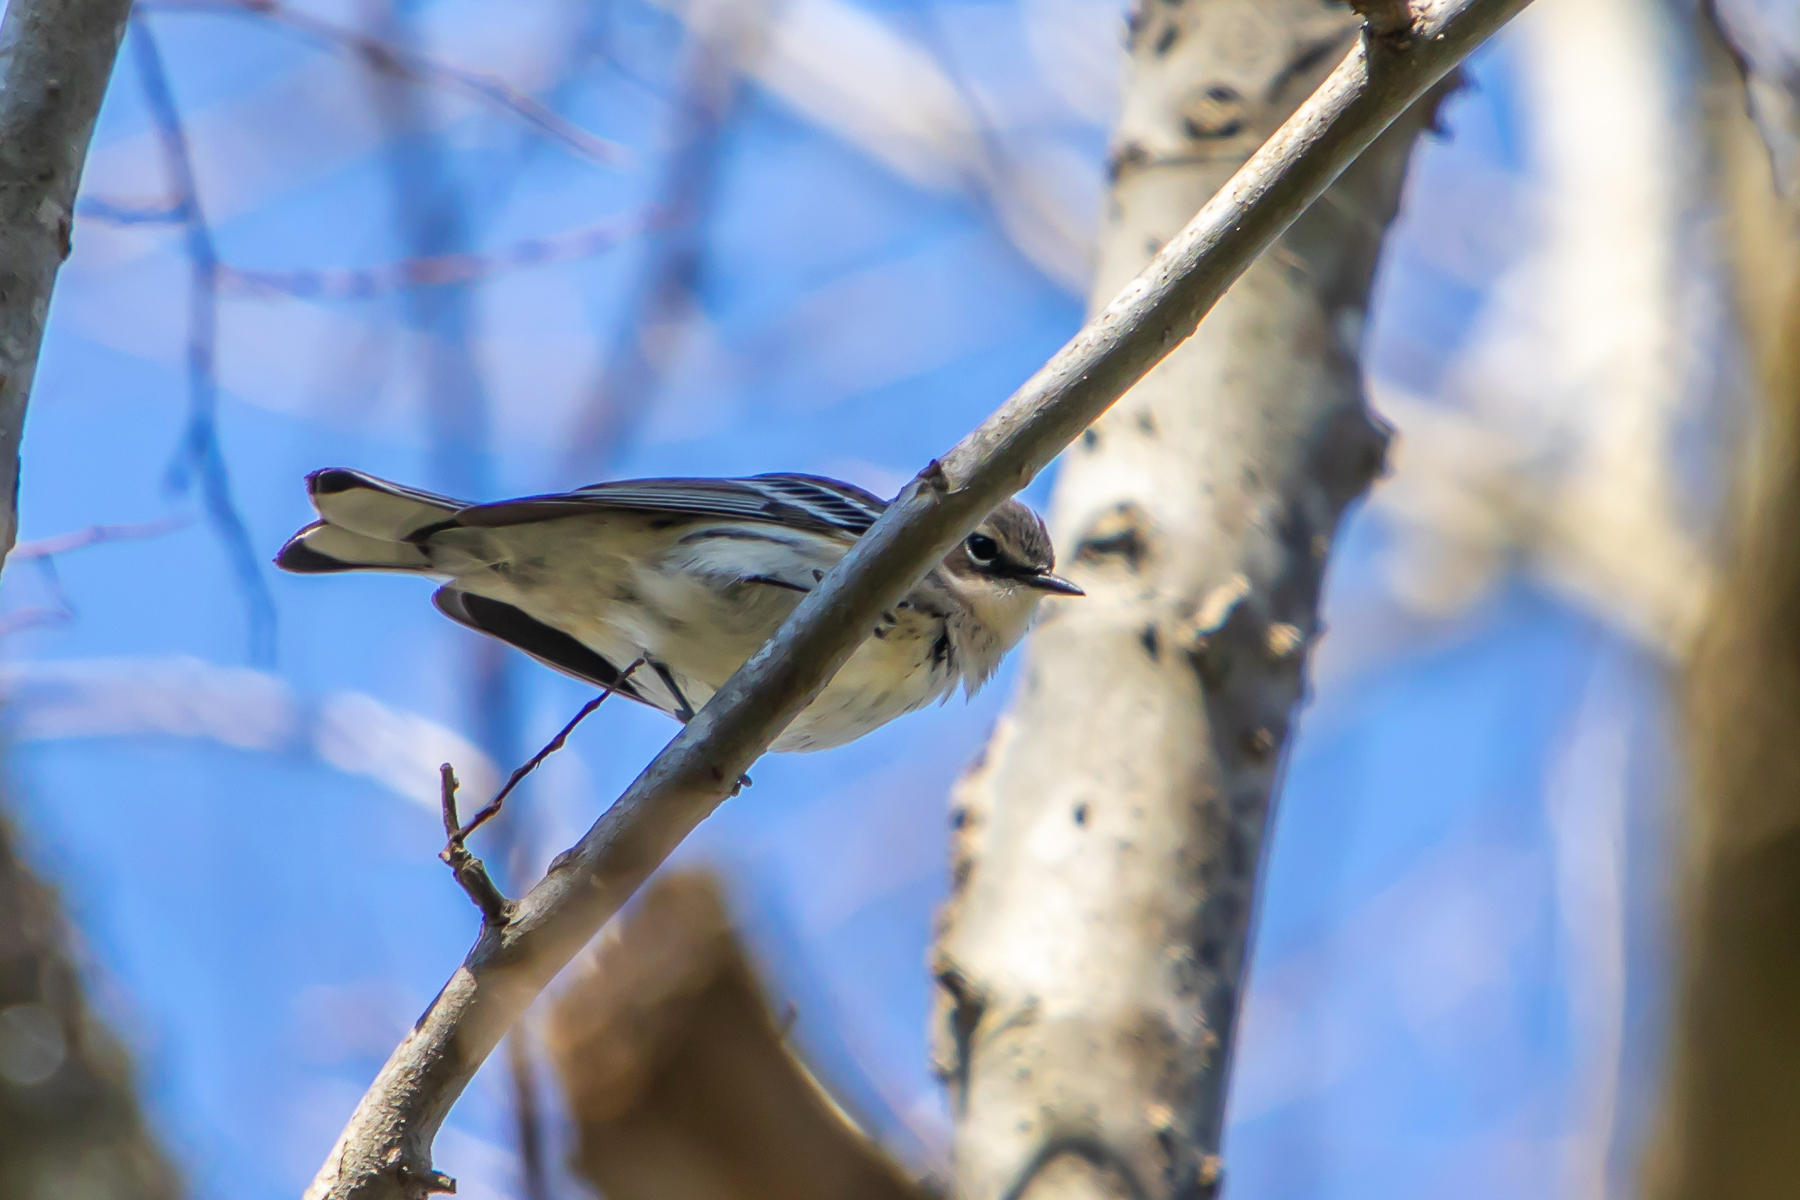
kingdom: Animalia
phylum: Chordata
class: Aves
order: Passeriformes
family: Parulidae
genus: Setophaga
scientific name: Setophaga coronata
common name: Myrtle warbler
